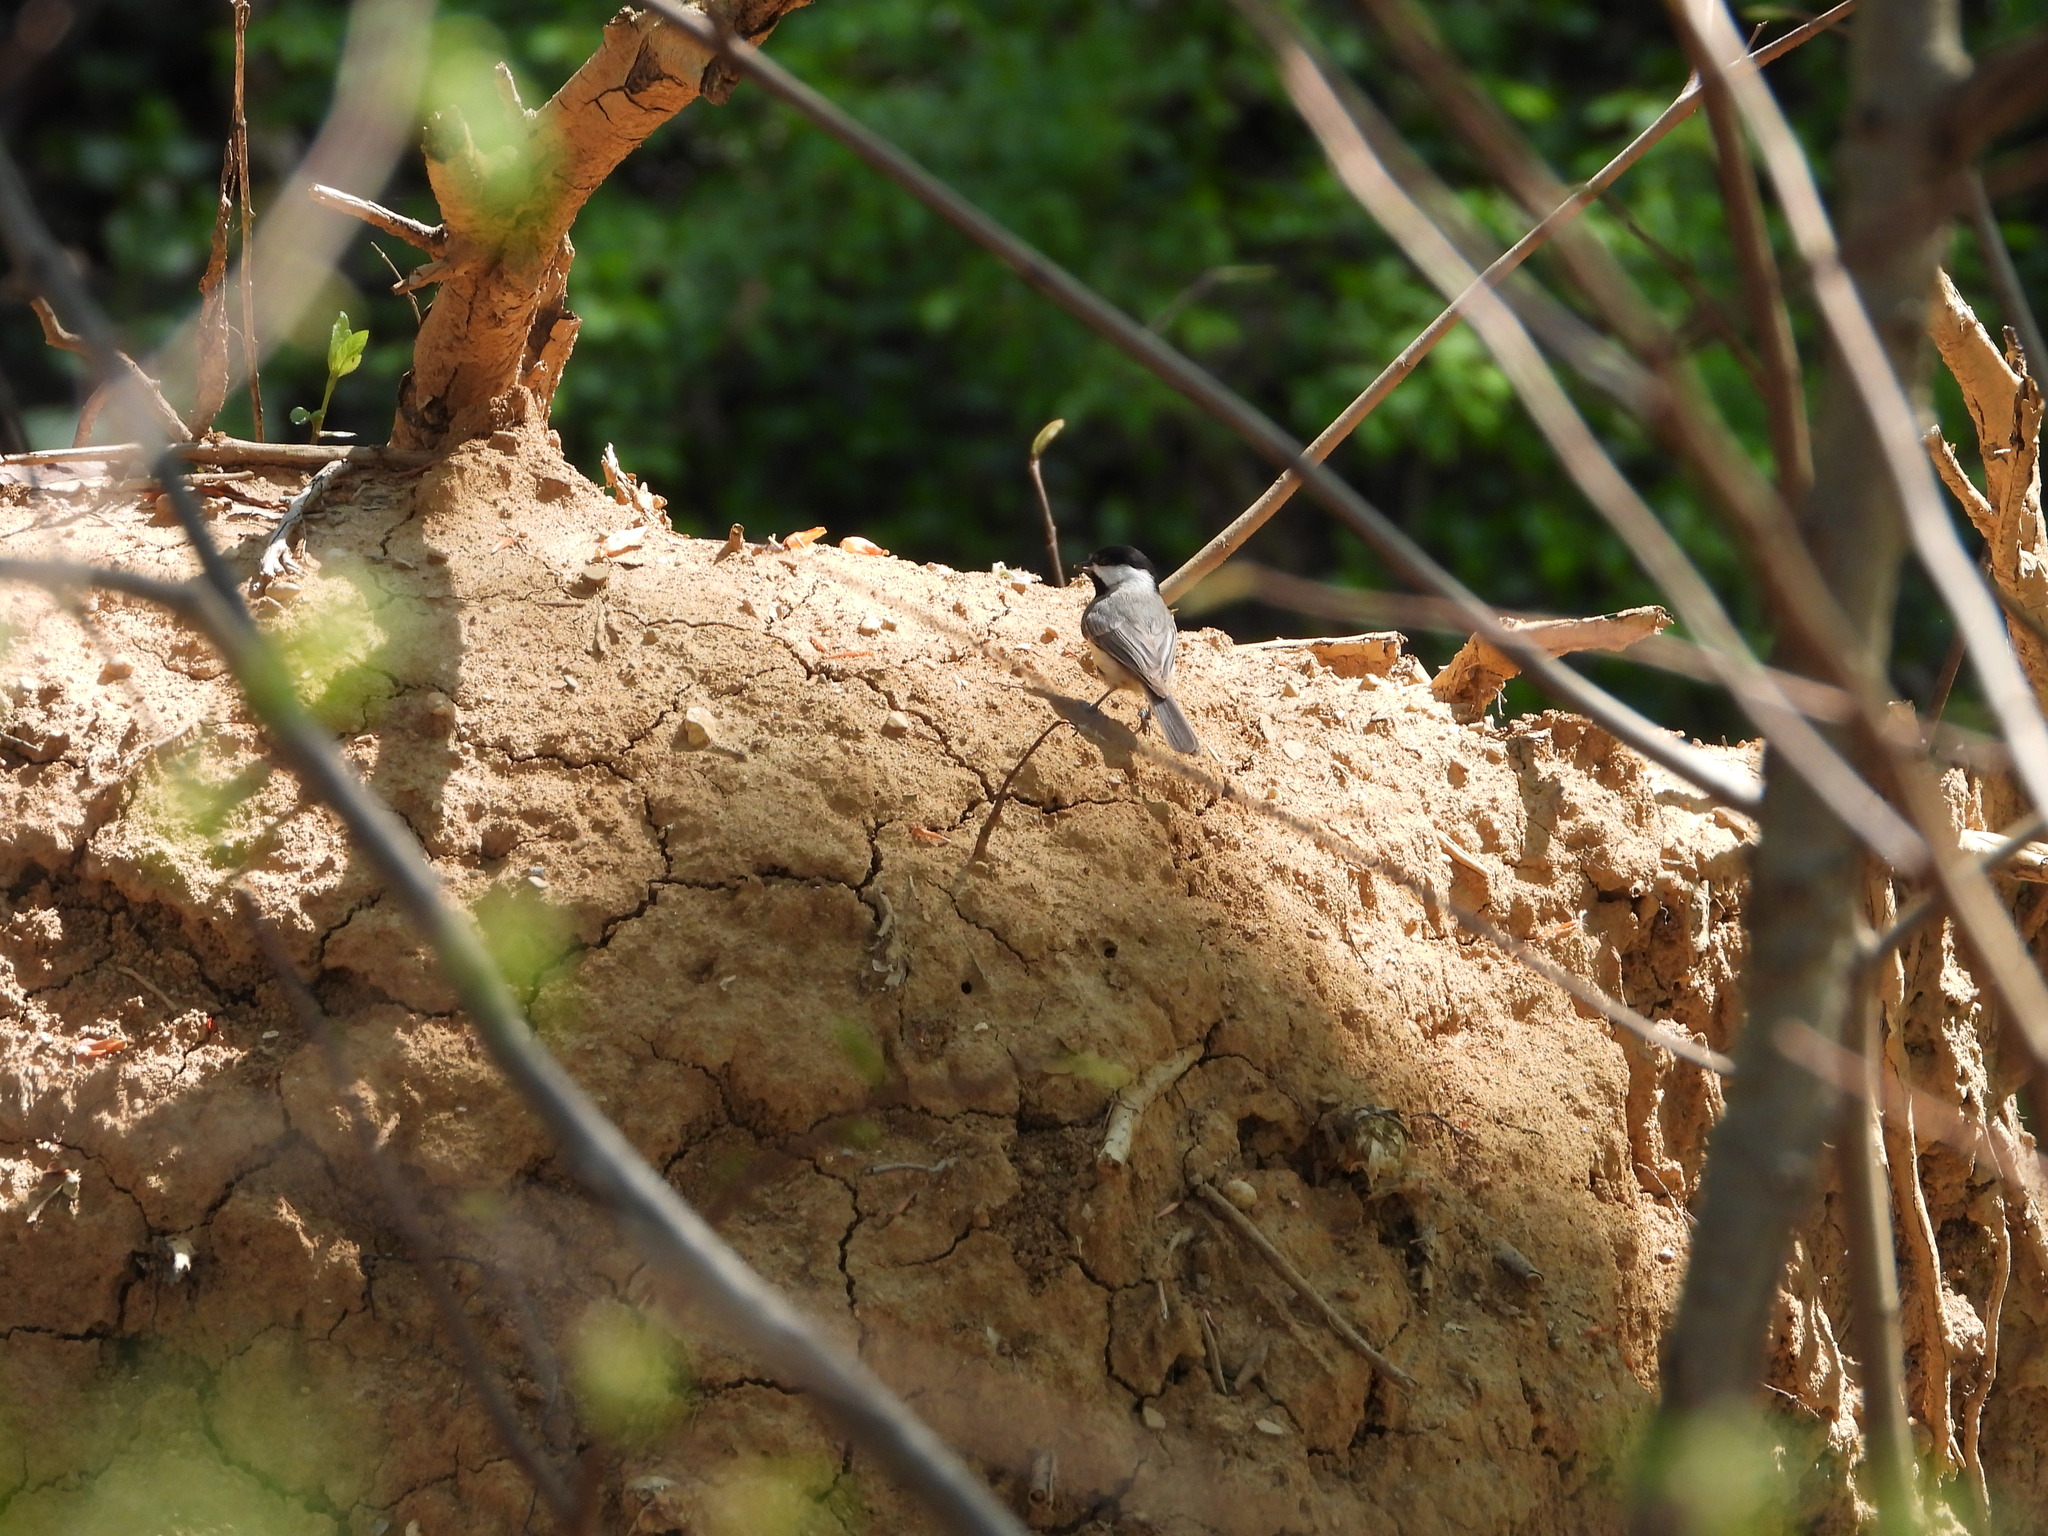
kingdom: Animalia
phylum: Chordata
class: Aves
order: Passeriformes
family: Paridae
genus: Poecile
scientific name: Poecile carolinensis
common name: Carolina chickadee
